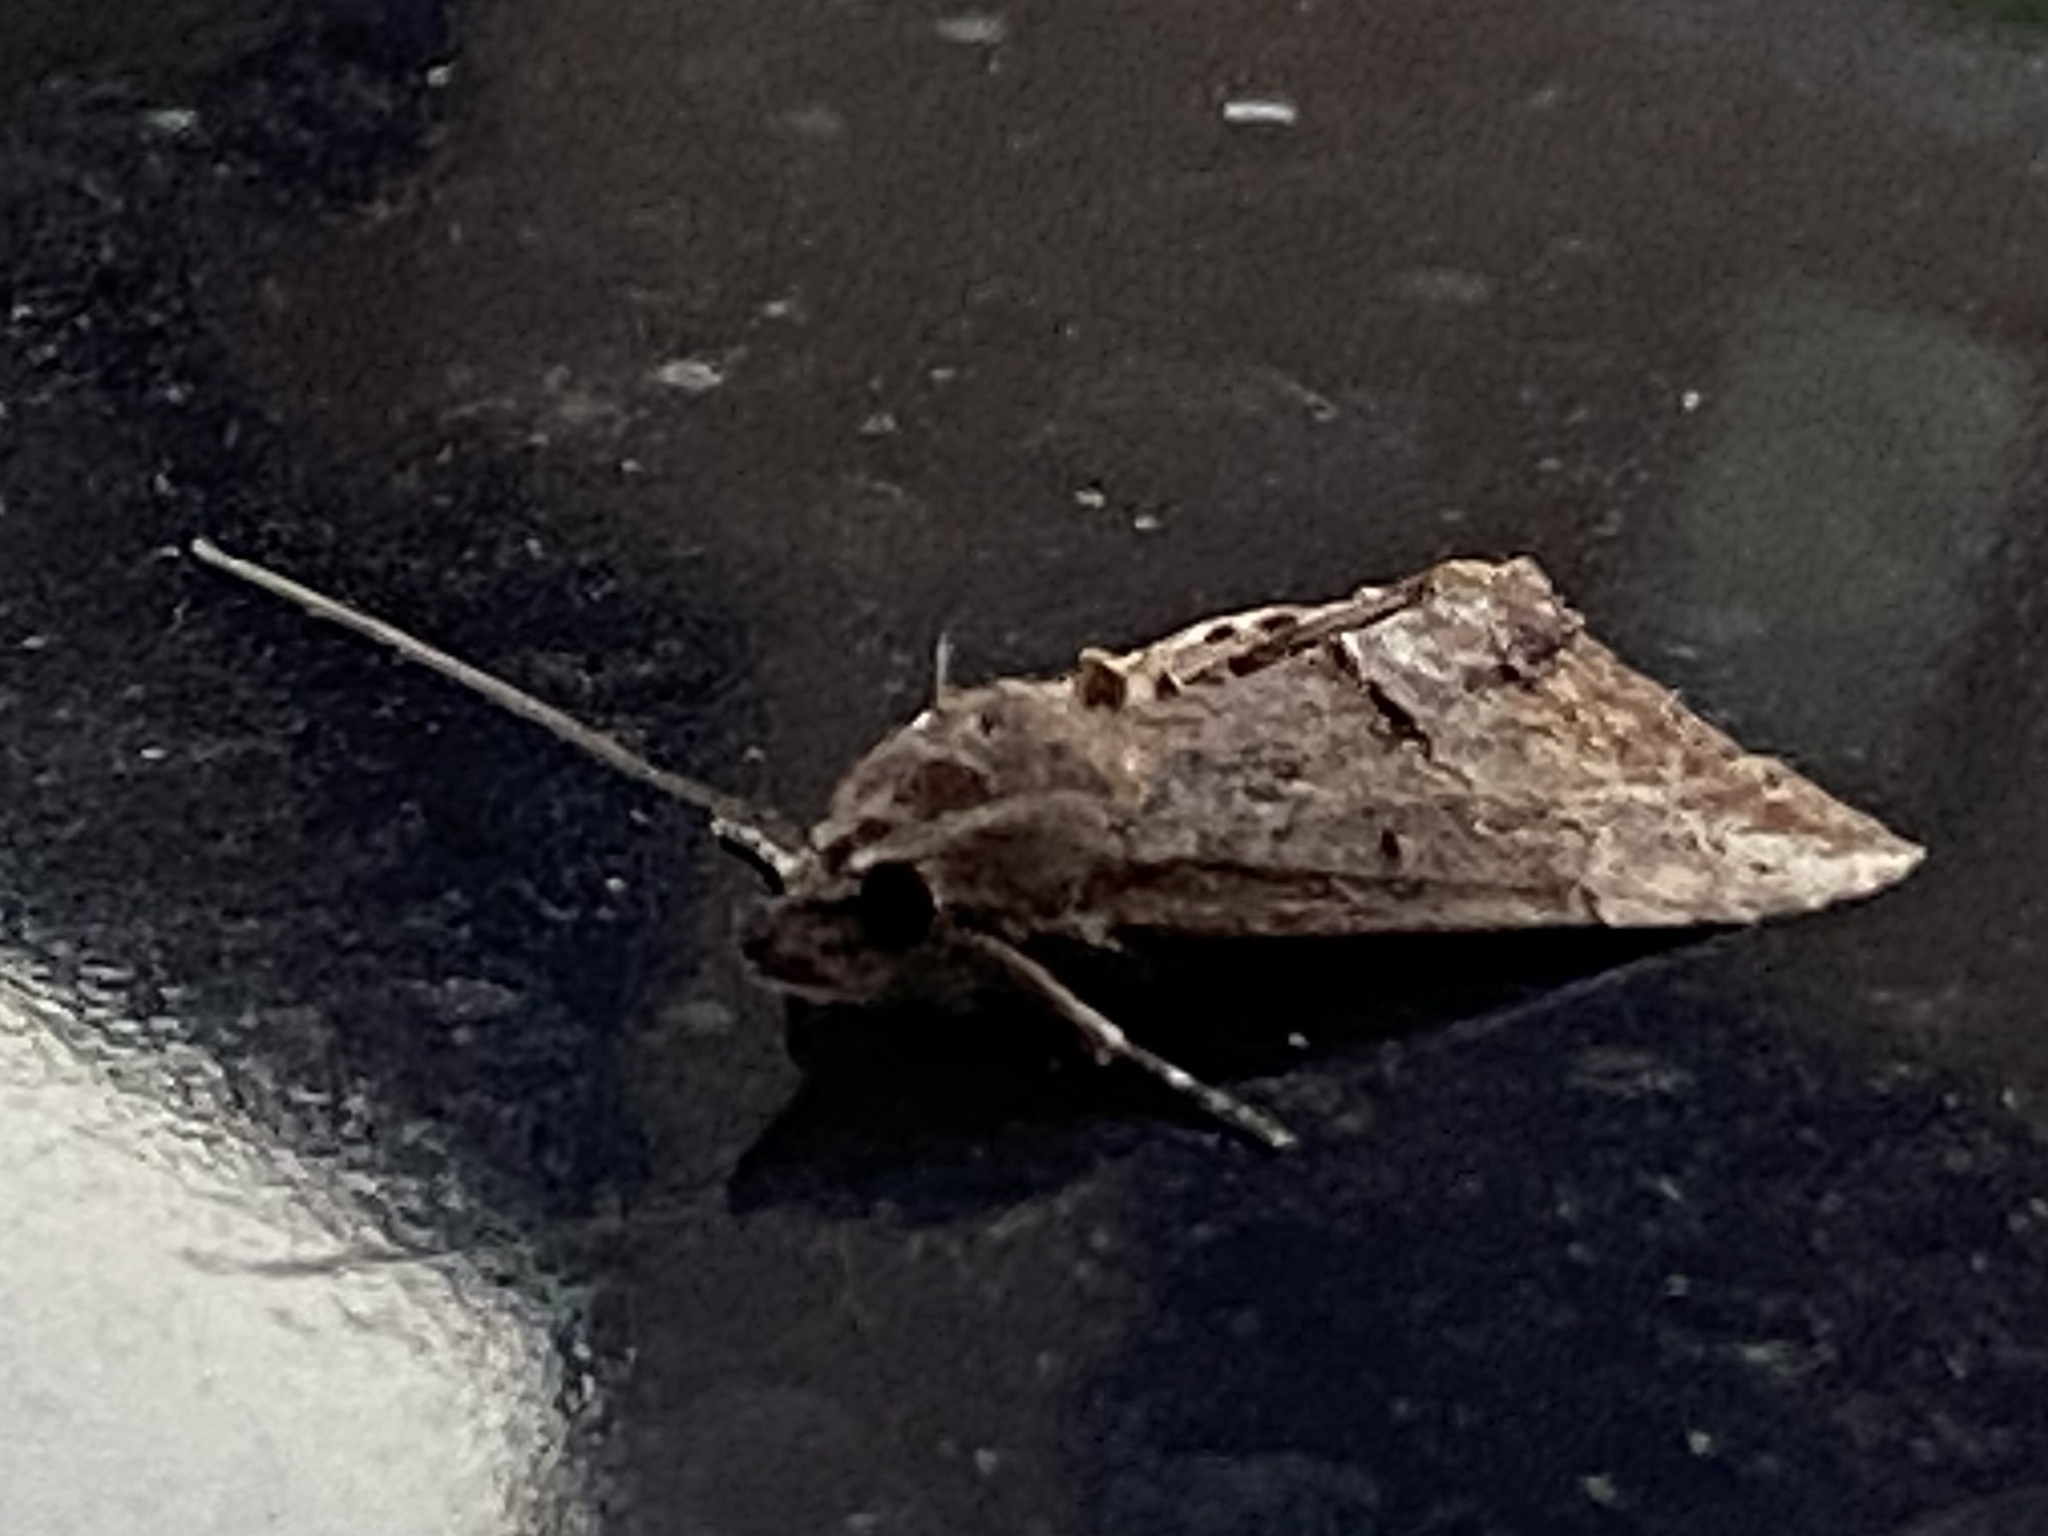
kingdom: Animalia
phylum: Arthropoda
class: Insecta
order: Lepidoptera
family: Erebidae
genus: Hypena
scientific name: Hypena scabra
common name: Green cloverworm
